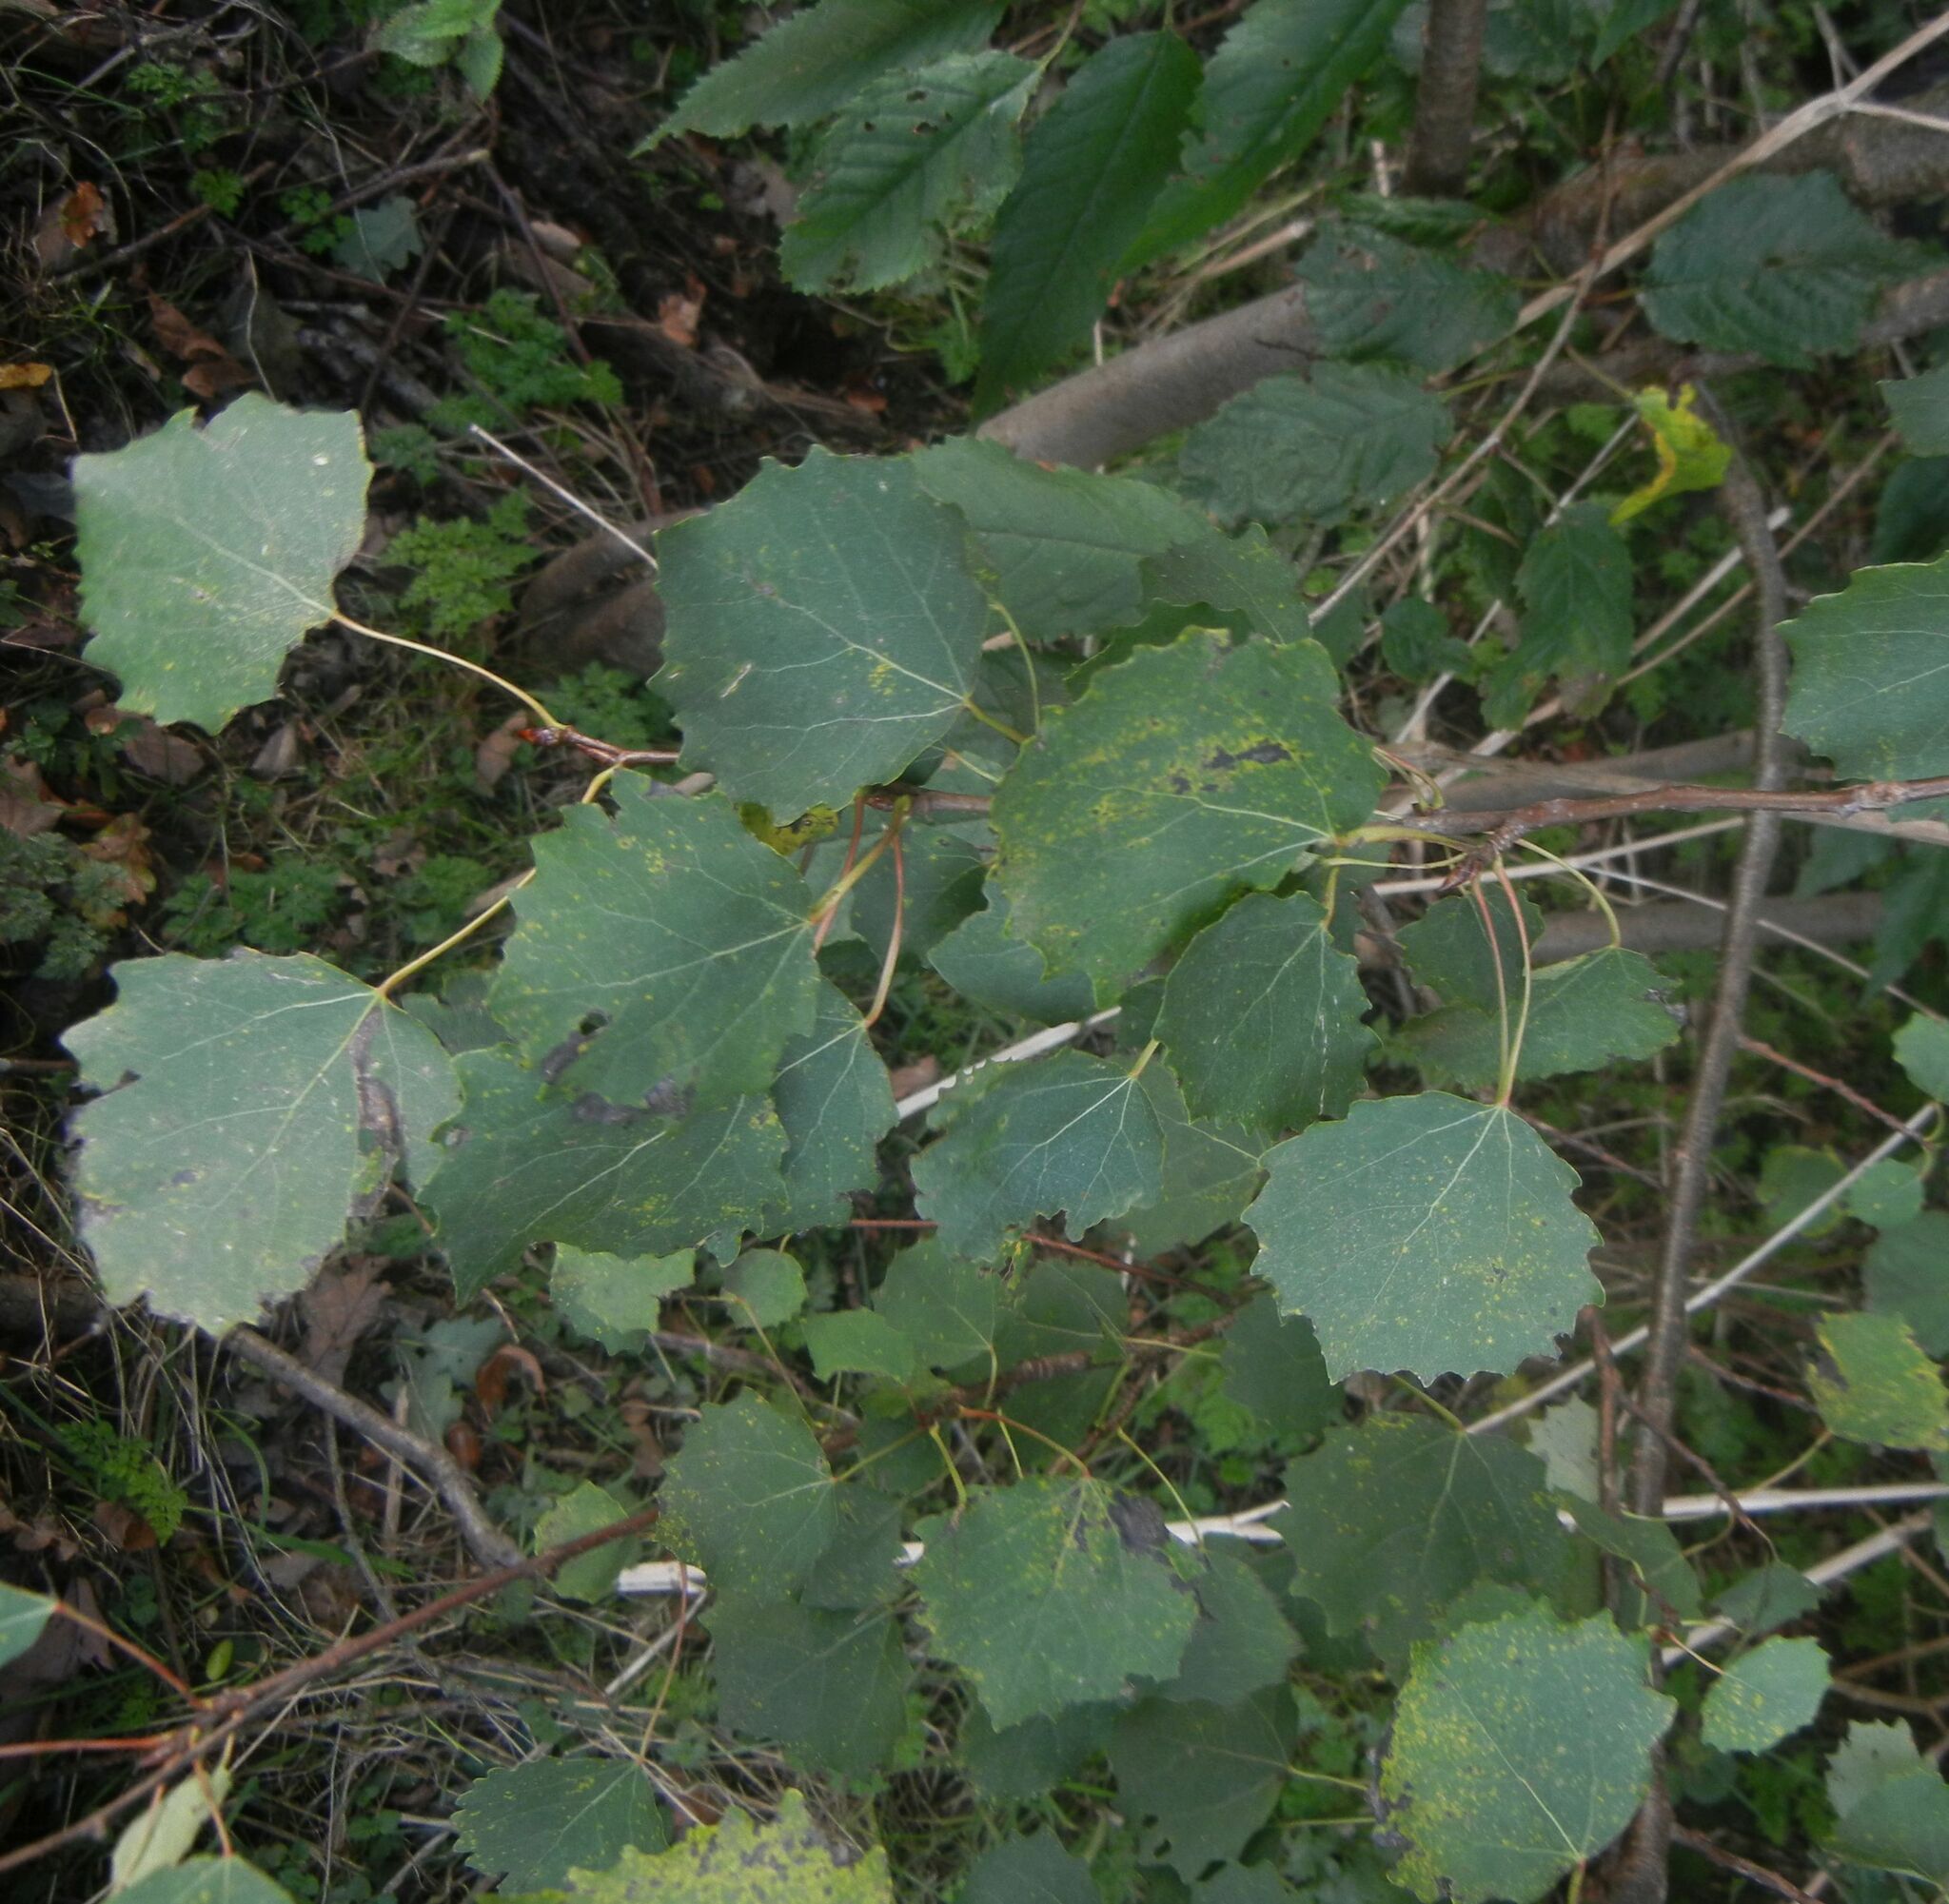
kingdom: Plantae
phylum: Tracheophyta
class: Magnoliopsida
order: Malpighiales
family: Salicaceae
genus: Populus
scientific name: Populus tremula
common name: European aspen
